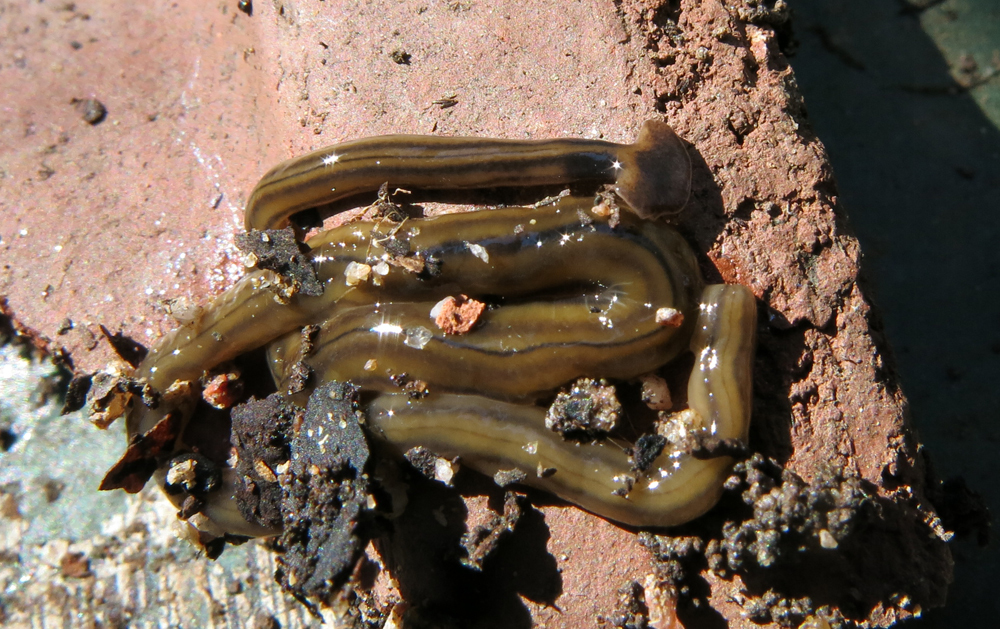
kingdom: Animalia
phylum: Platyhelminthes
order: Tricladida
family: Geoplanidae
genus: Bipalium
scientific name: Bipalium kewense
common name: Hammerhead flatworm
